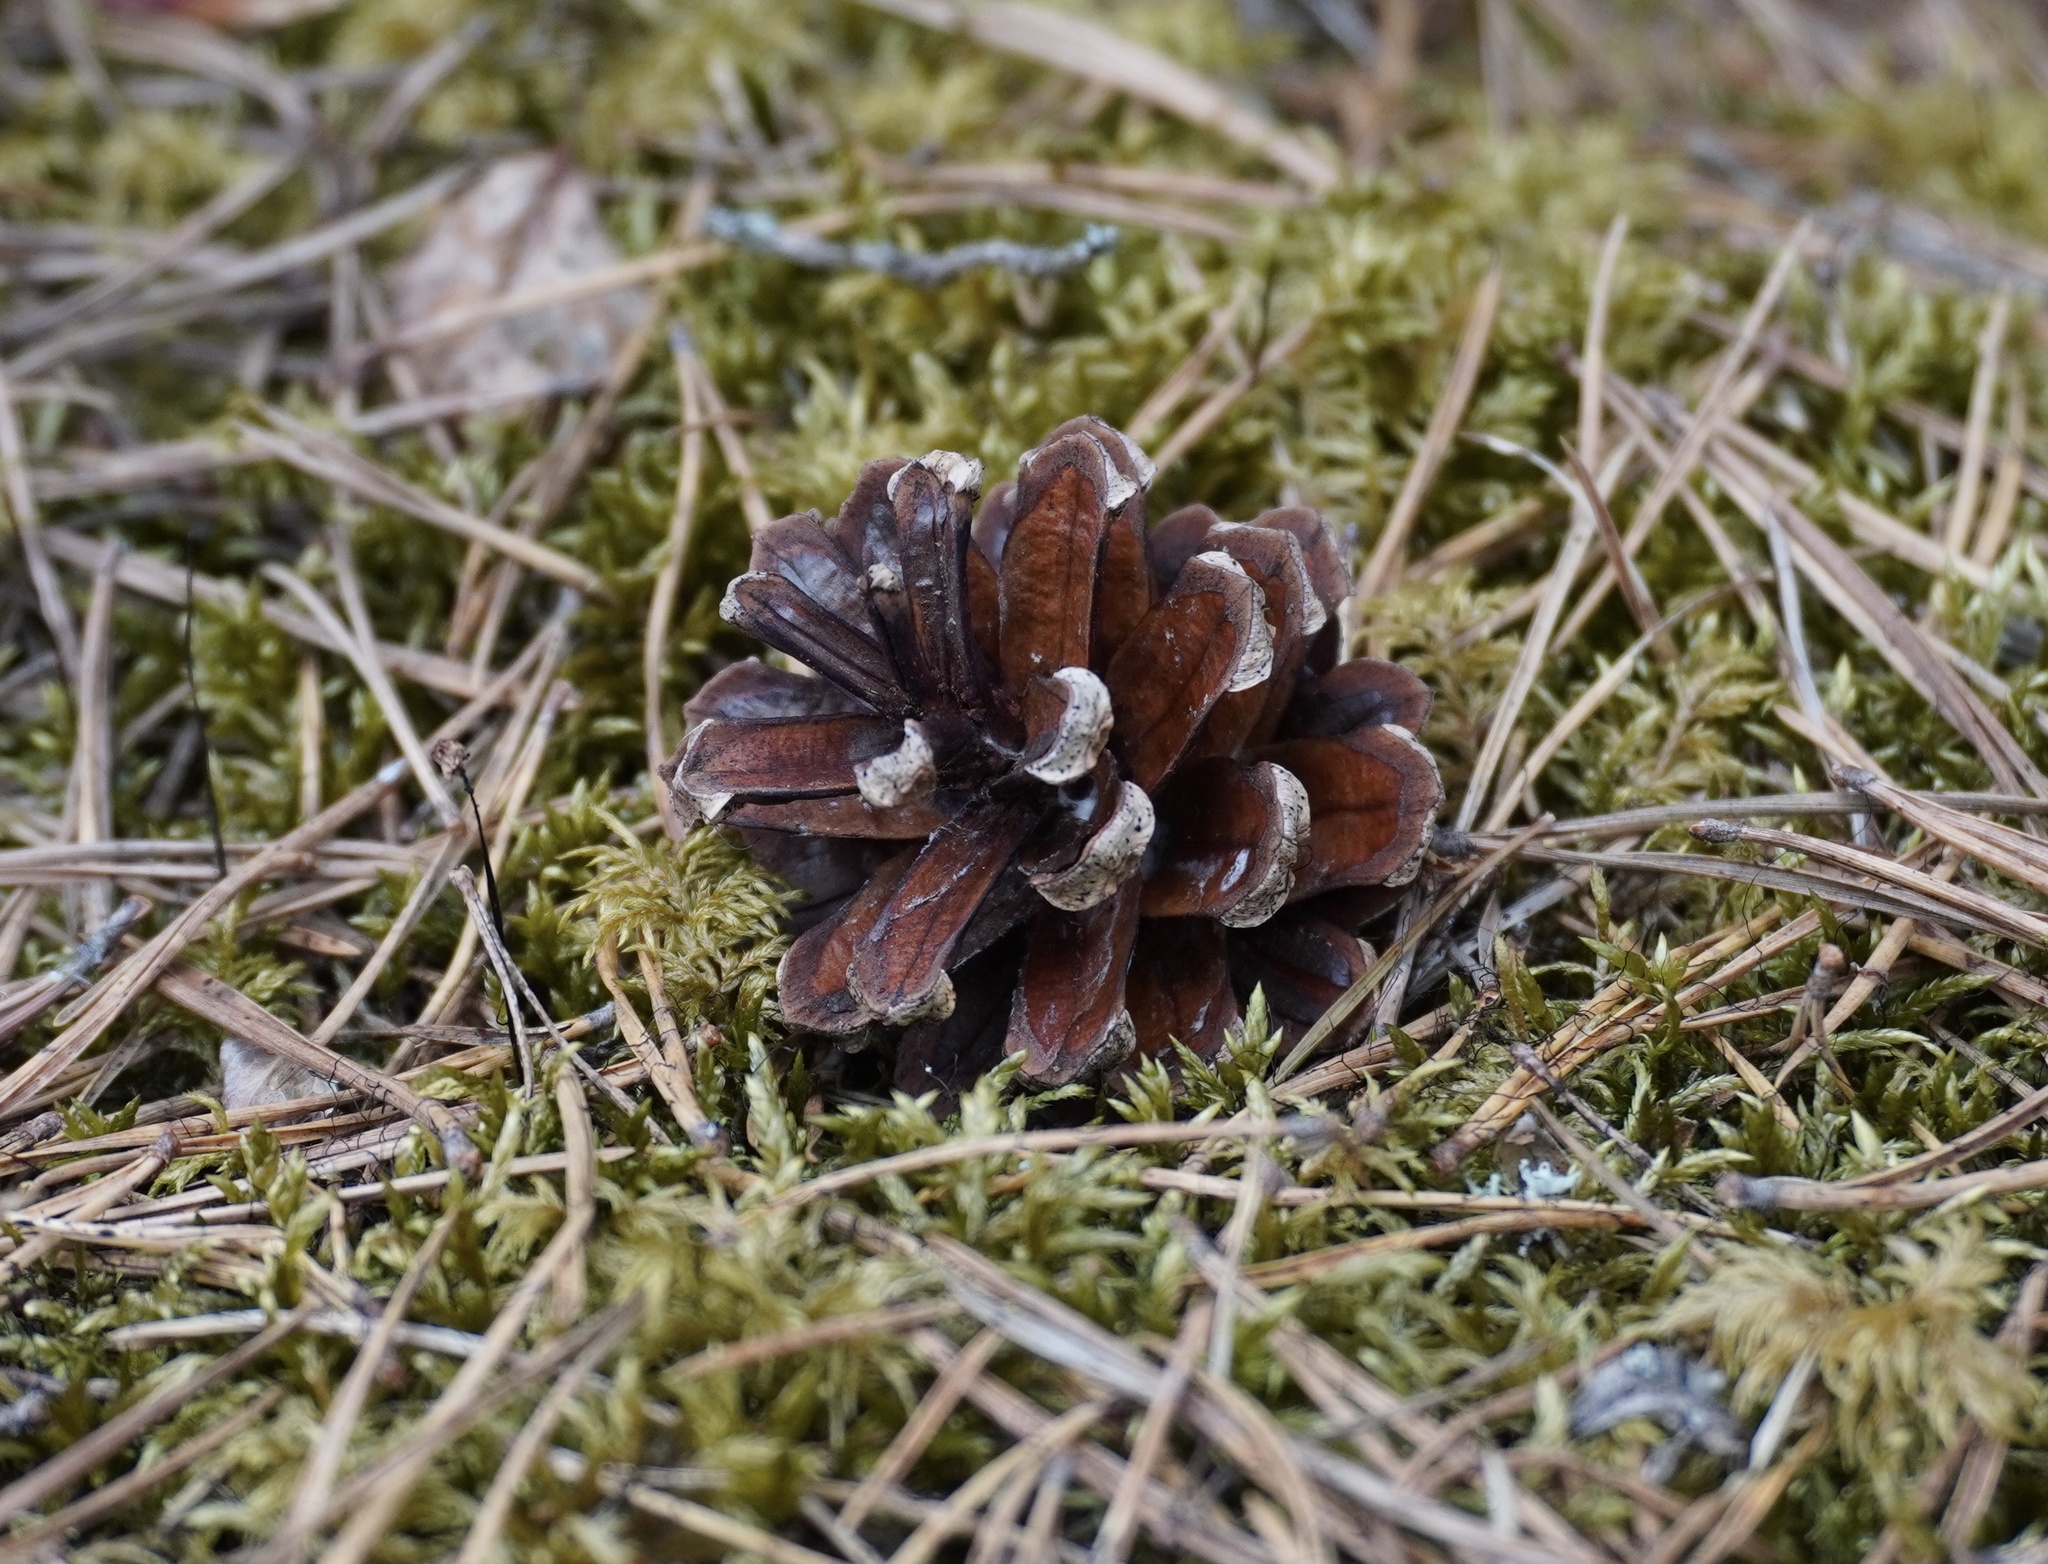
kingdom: Plantae
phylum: Tracheophyta
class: Pinopsida
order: Pinales
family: Pinaceae
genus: Pinus
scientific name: Pinus sylvestris
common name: Scots pine
